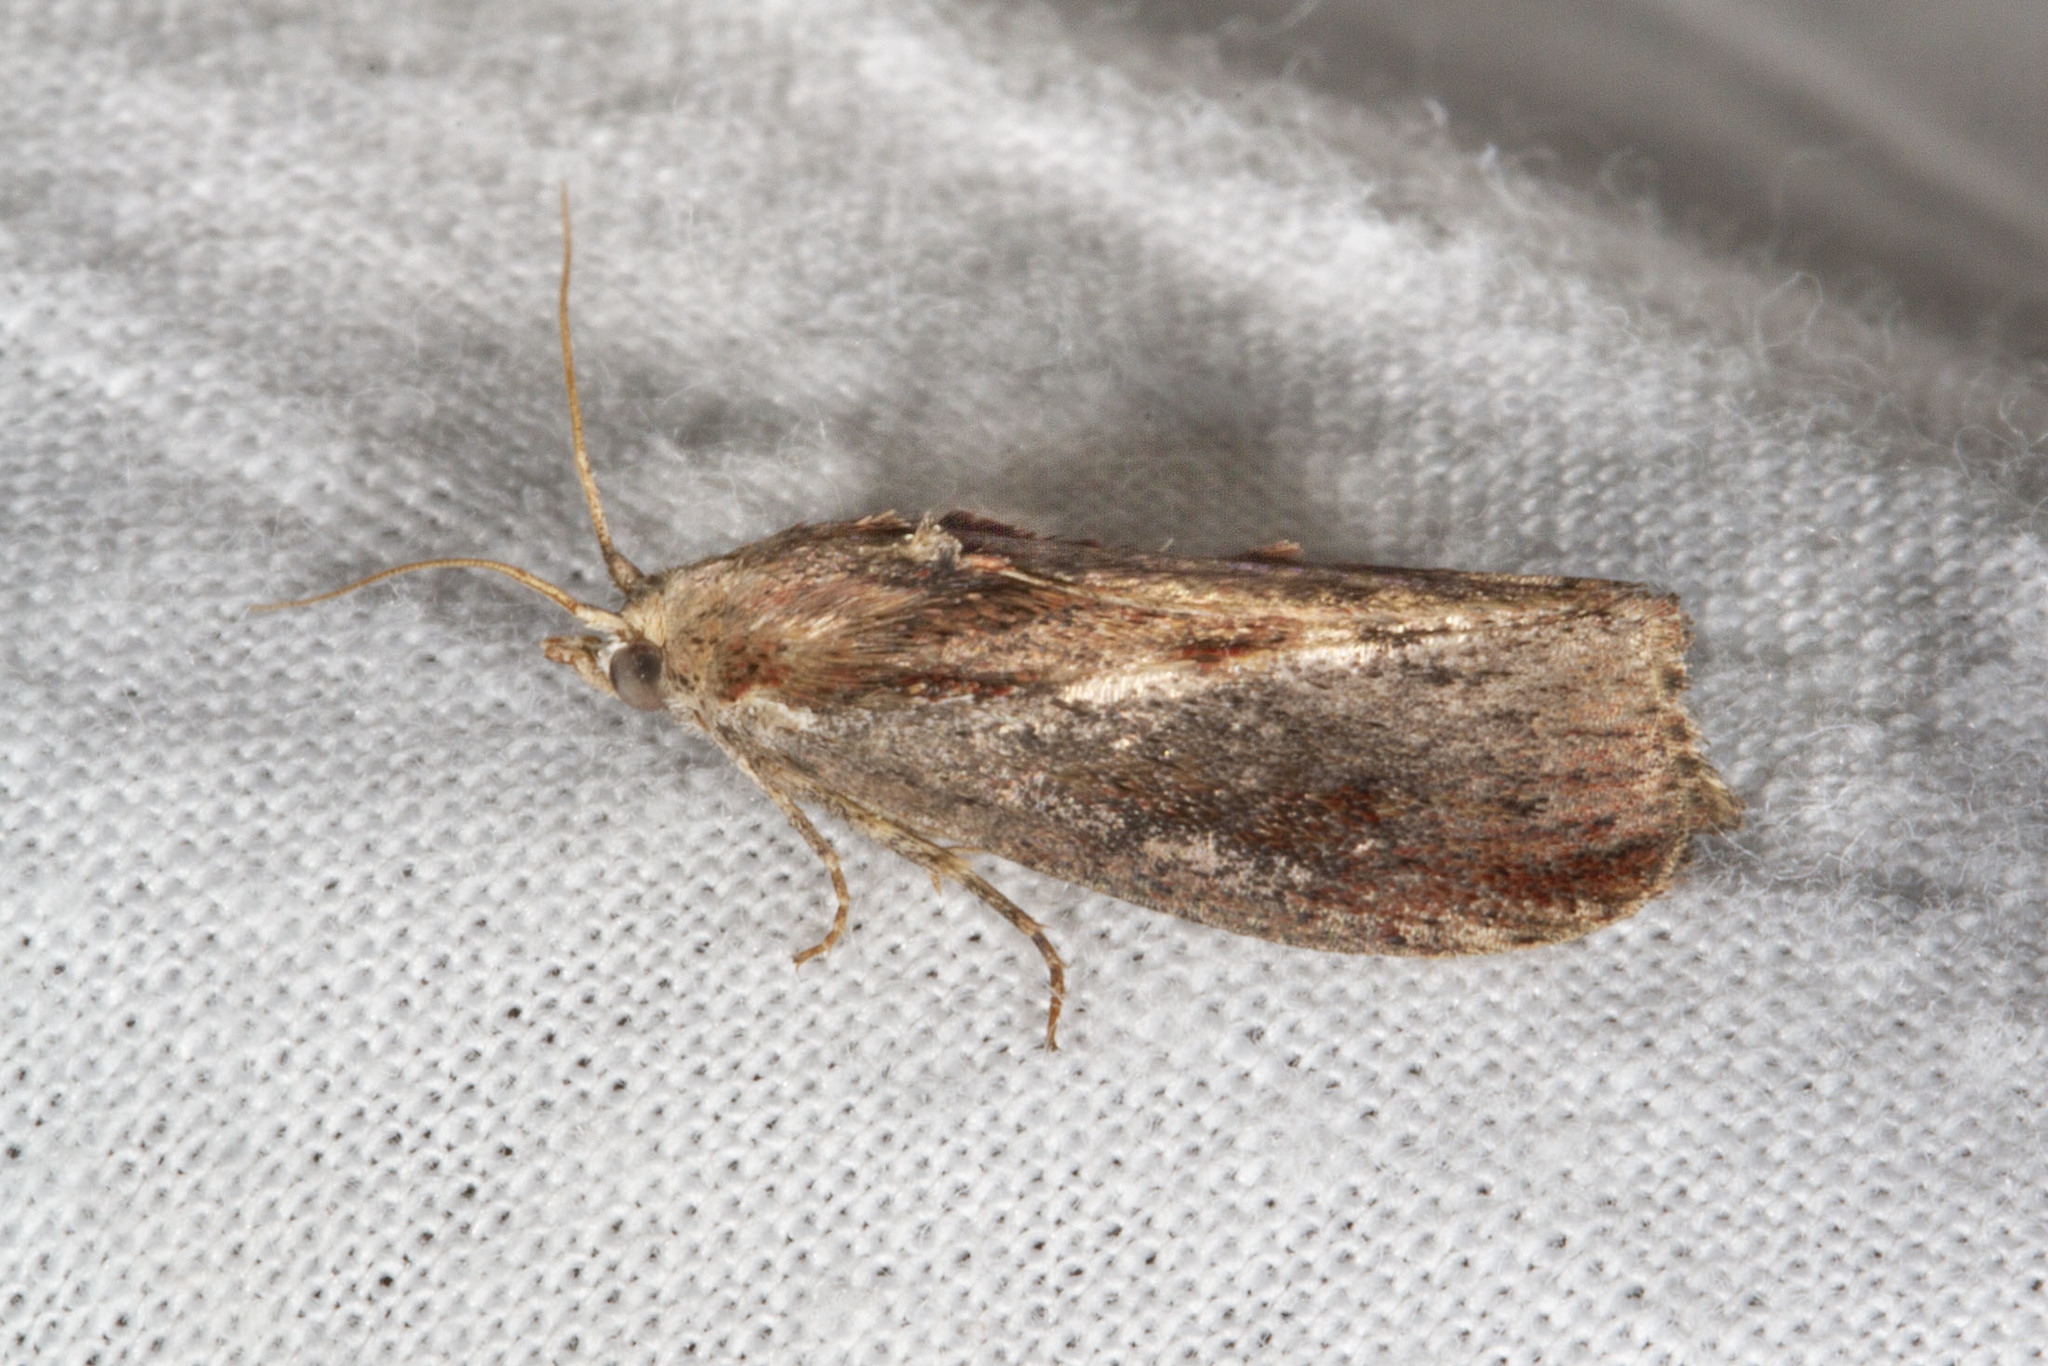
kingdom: Animalia
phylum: Arthropoda
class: Insecta
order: Lepidoptera
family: Pyralidae
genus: Galleria
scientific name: Galleria mellonella
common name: Greater wax moth
